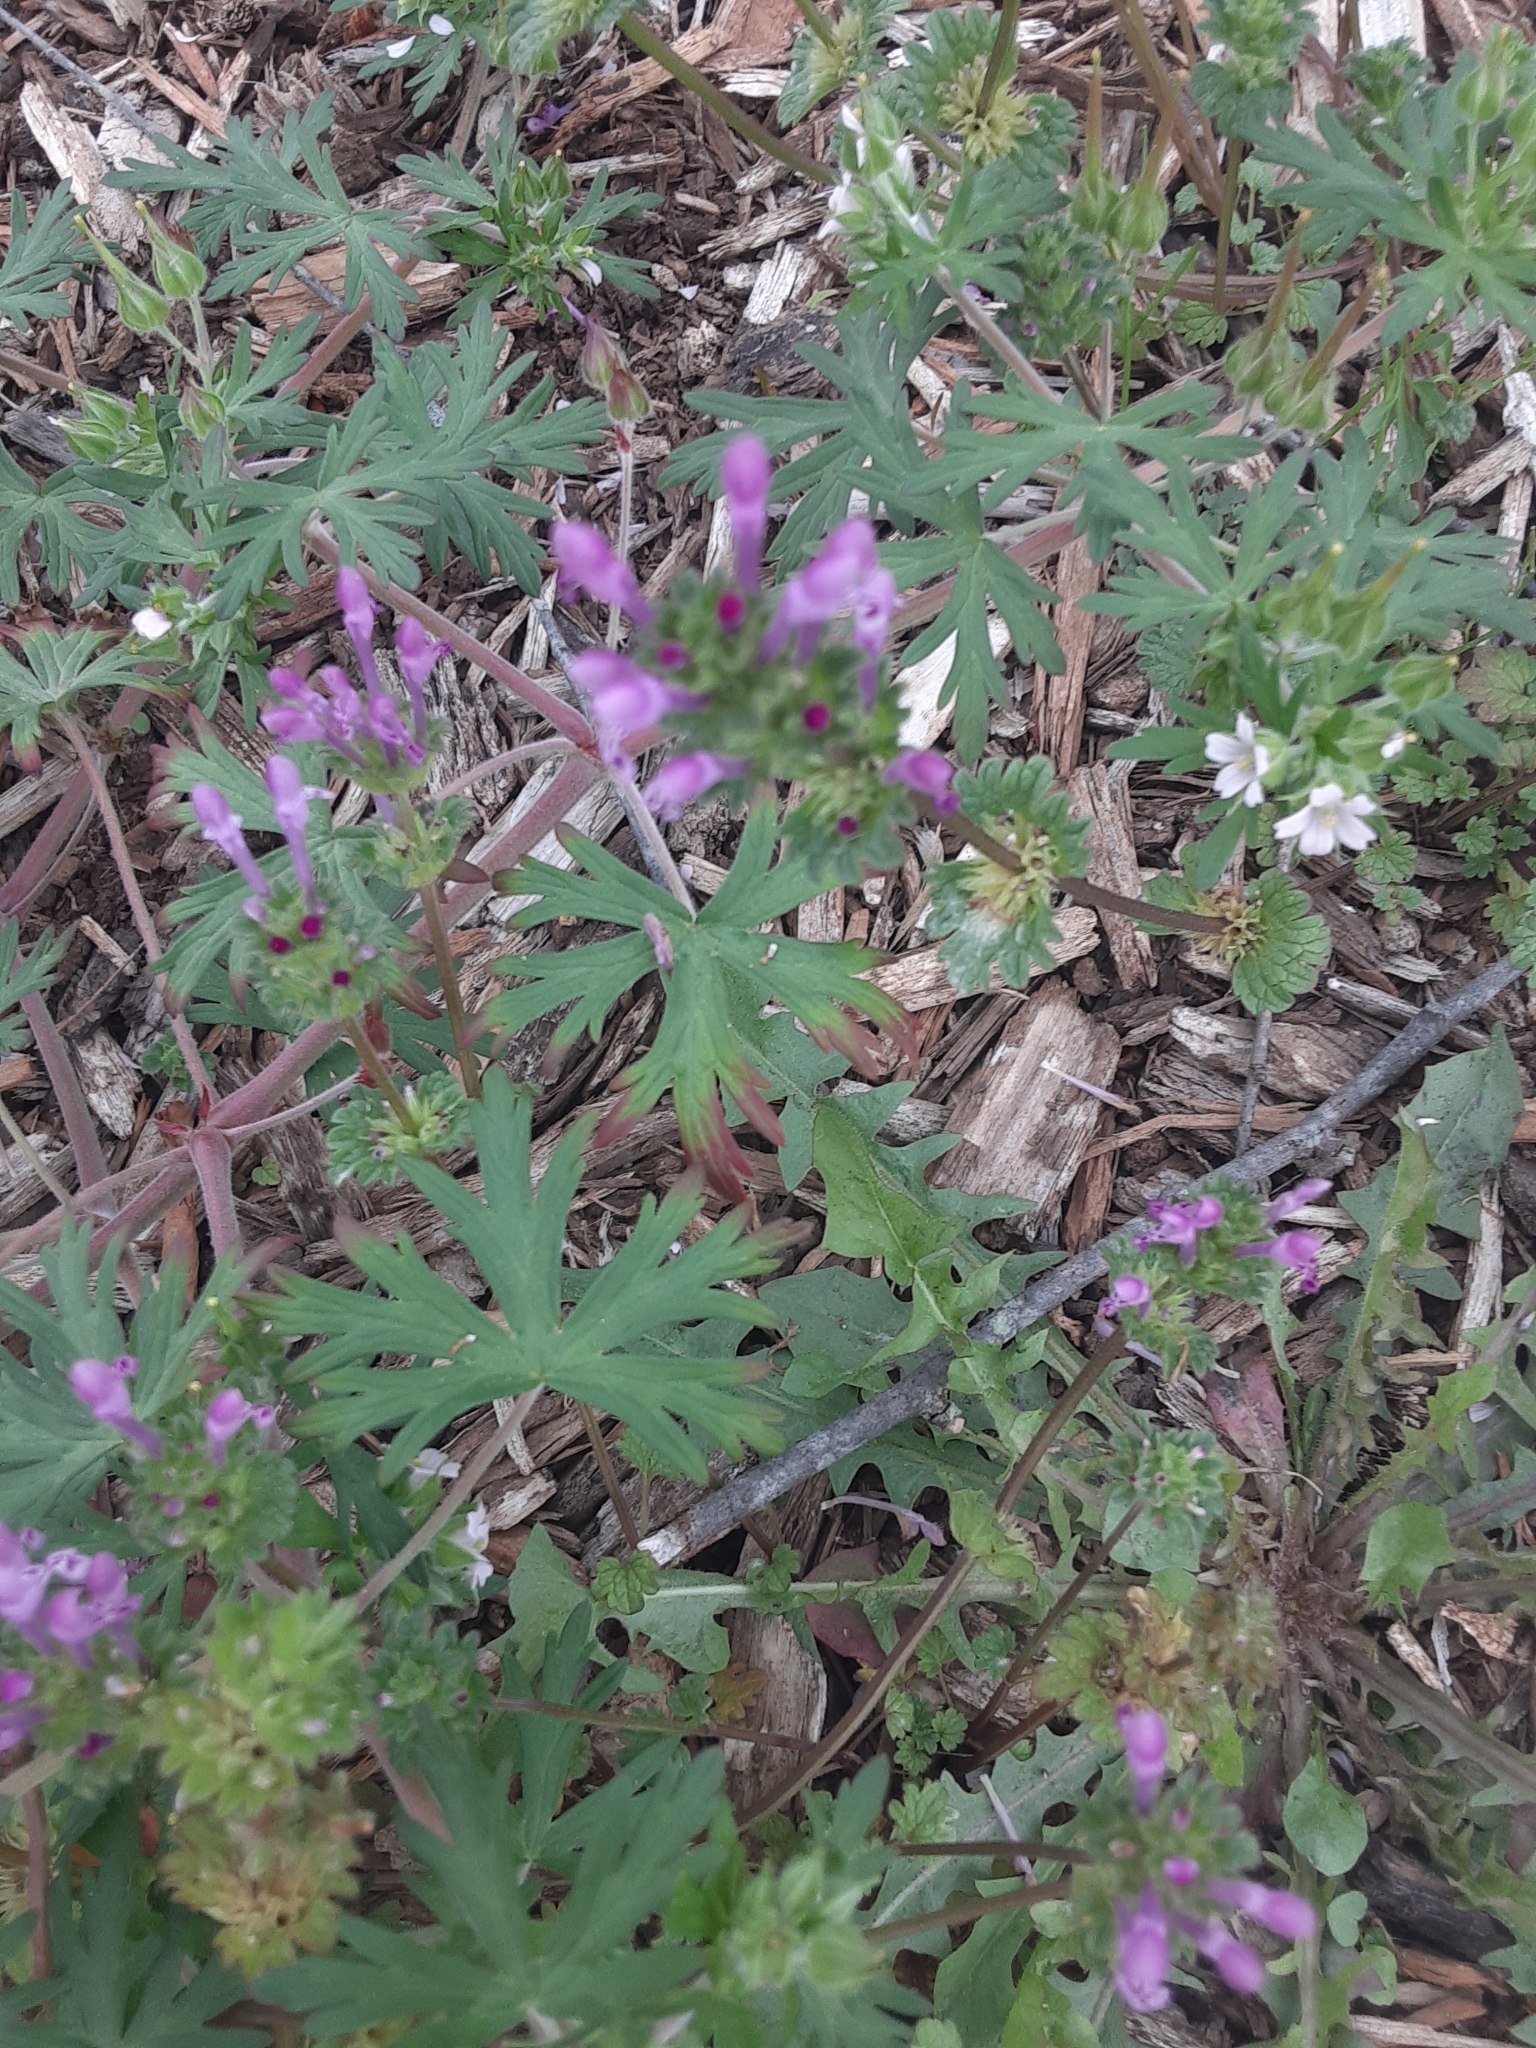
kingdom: Plantae
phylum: Tracheophyta
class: Magnoliopsida
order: Lamiales
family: Lamiaceae
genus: Lamium
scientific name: Lamium amplexicaule
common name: Henbit dead-nettle
